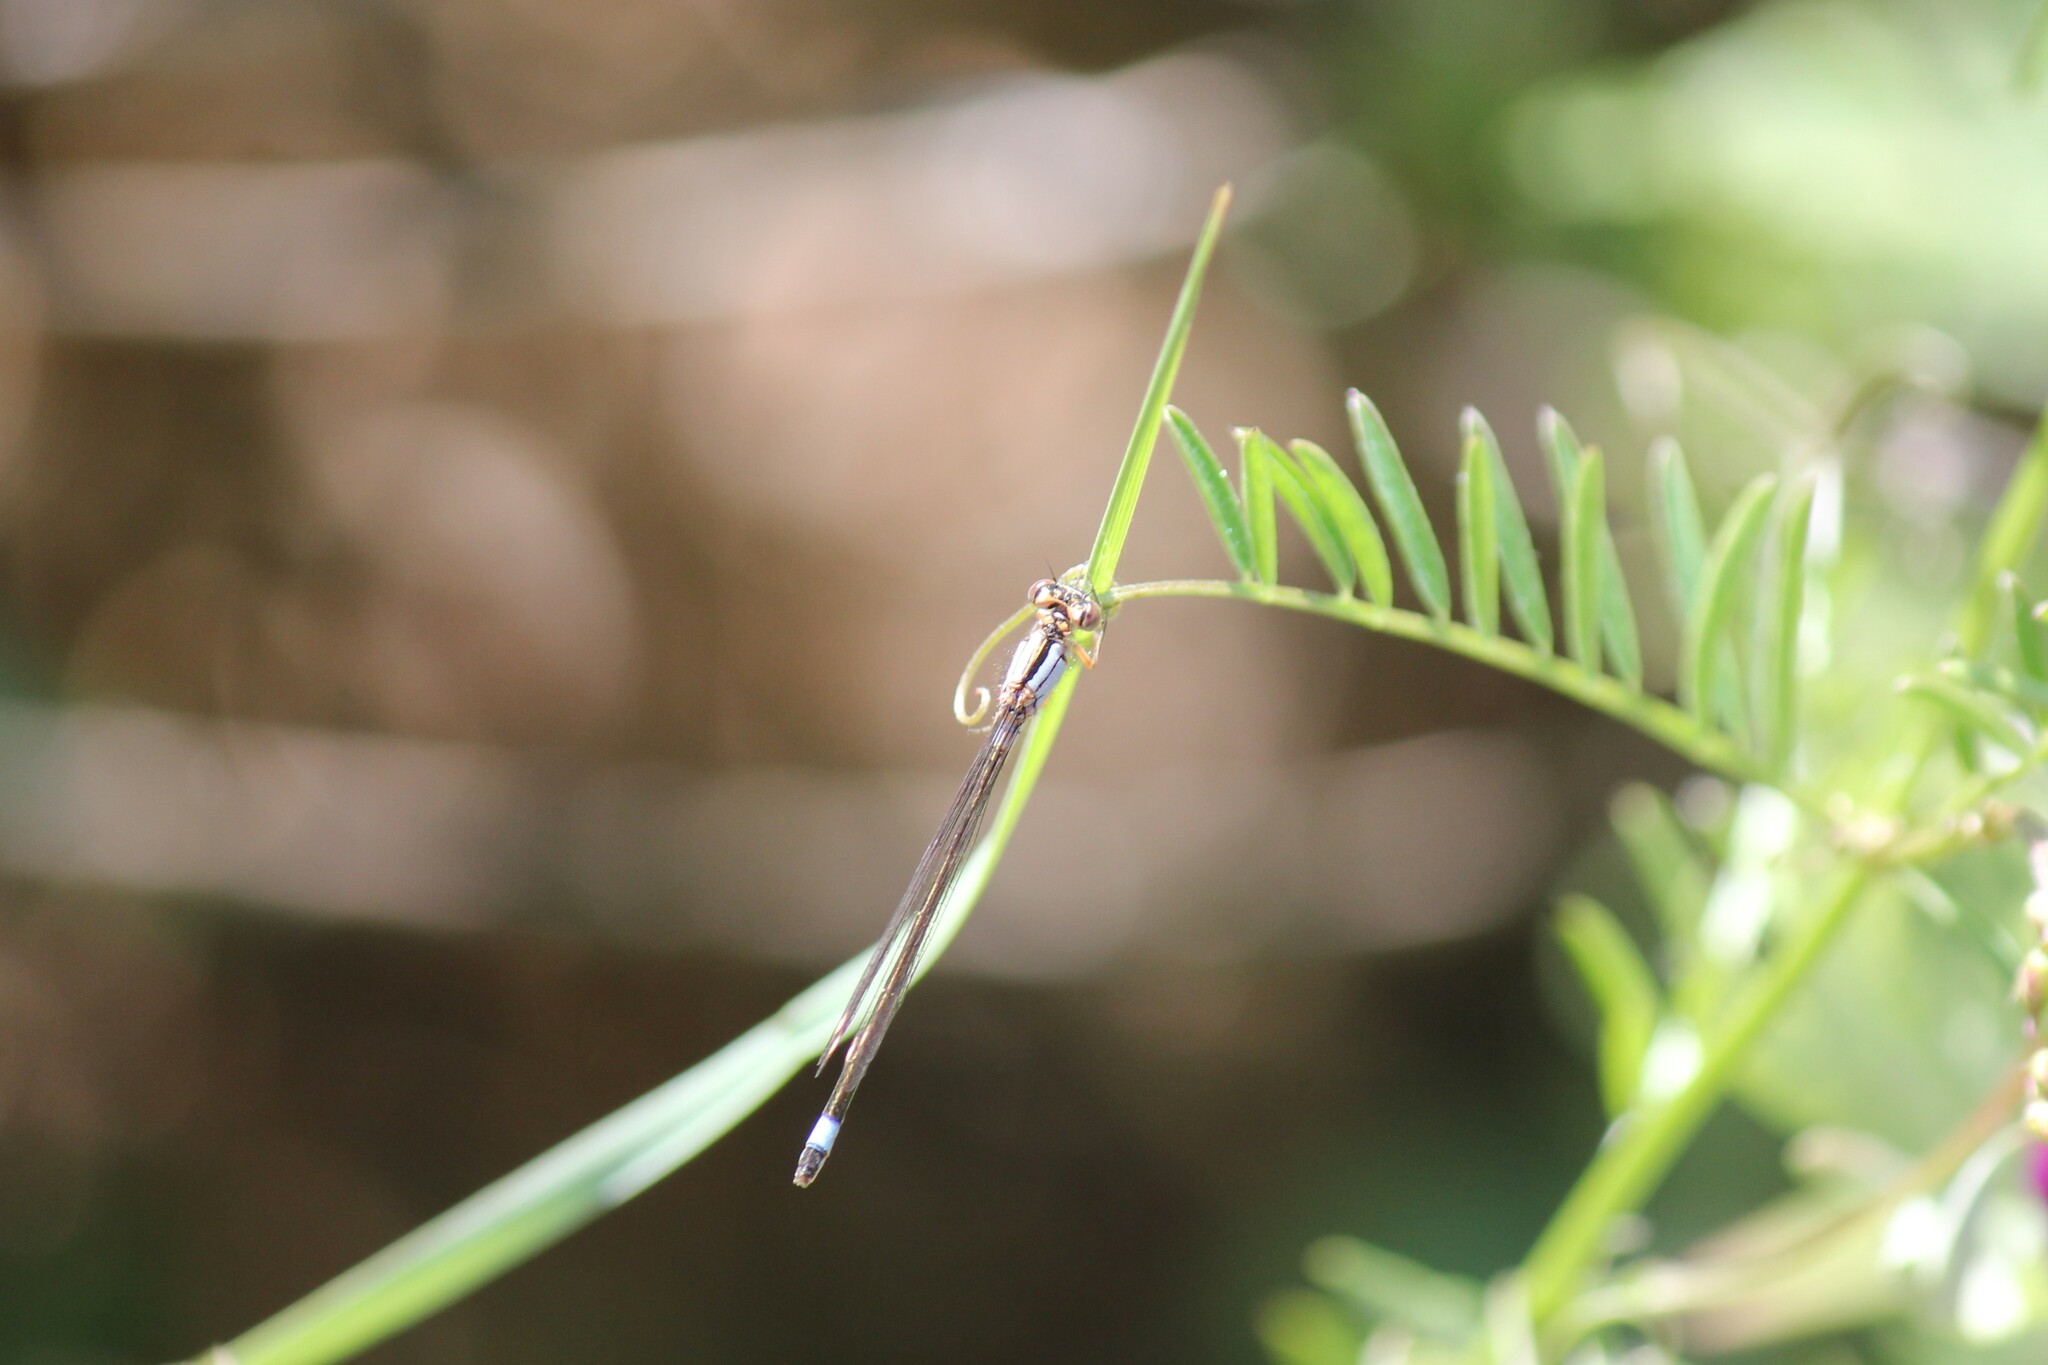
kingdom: Animalia
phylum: Arthropoda
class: Insecta
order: Odonata
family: Coenagrionidae
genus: Ischnura
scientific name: Ischnura cervula
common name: Pacific forktail
